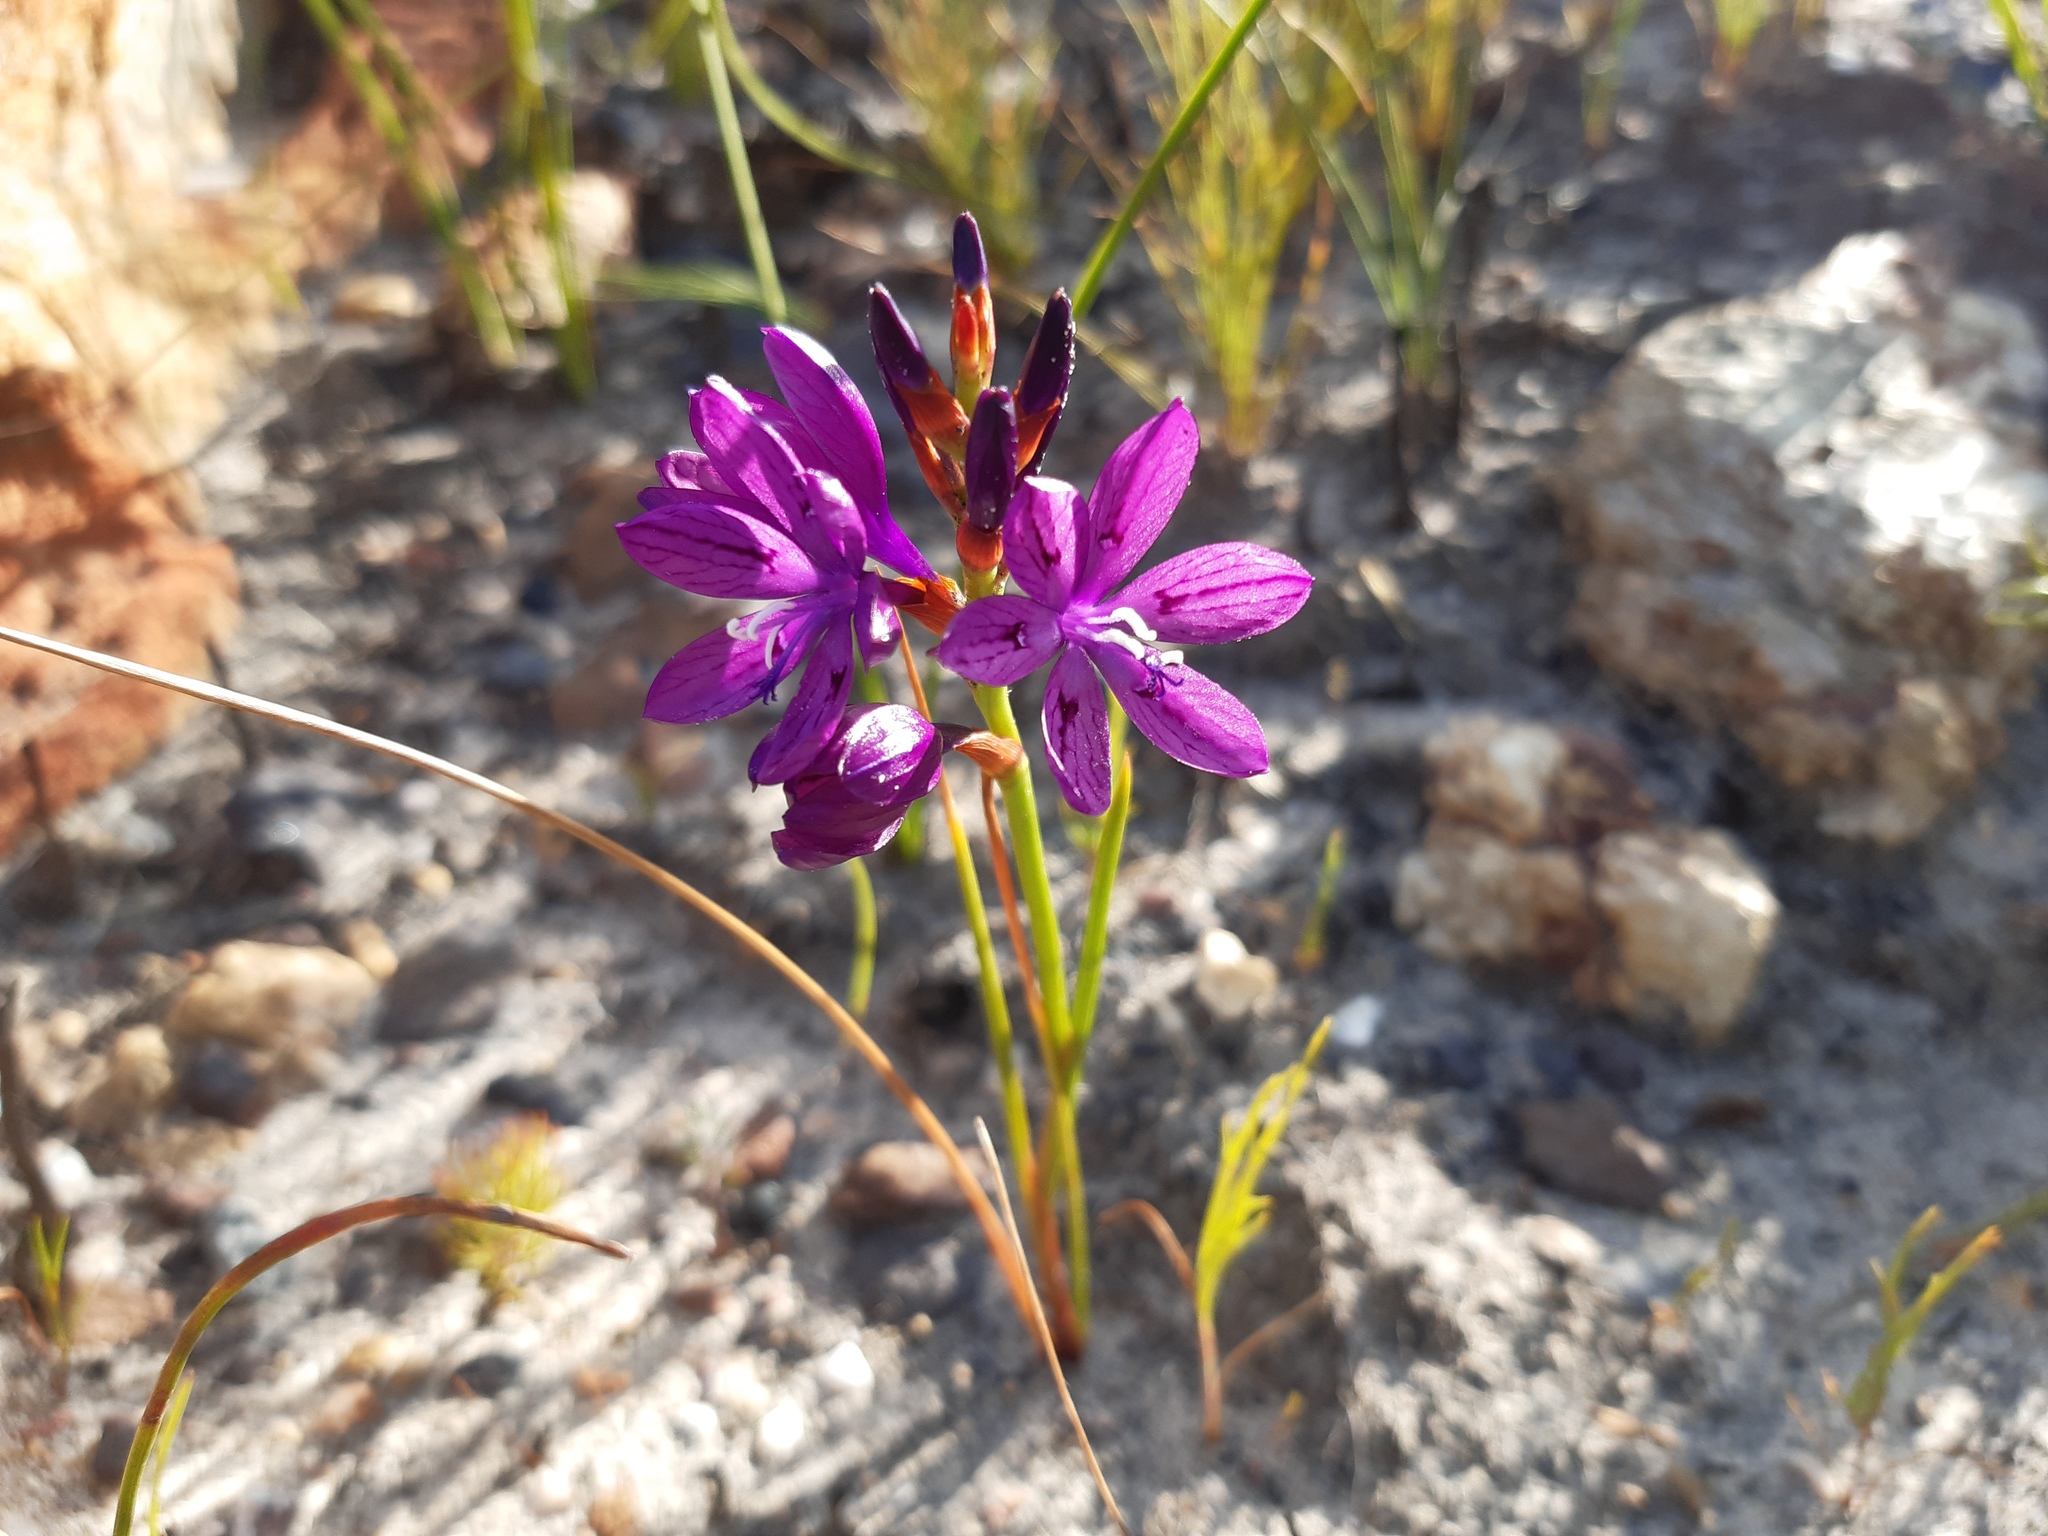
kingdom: Plantae
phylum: Tracheophyta
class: Liliopsida
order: Asparagales
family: Iridaceae
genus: Thereianthus
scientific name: Thereianthus bracteolatus
